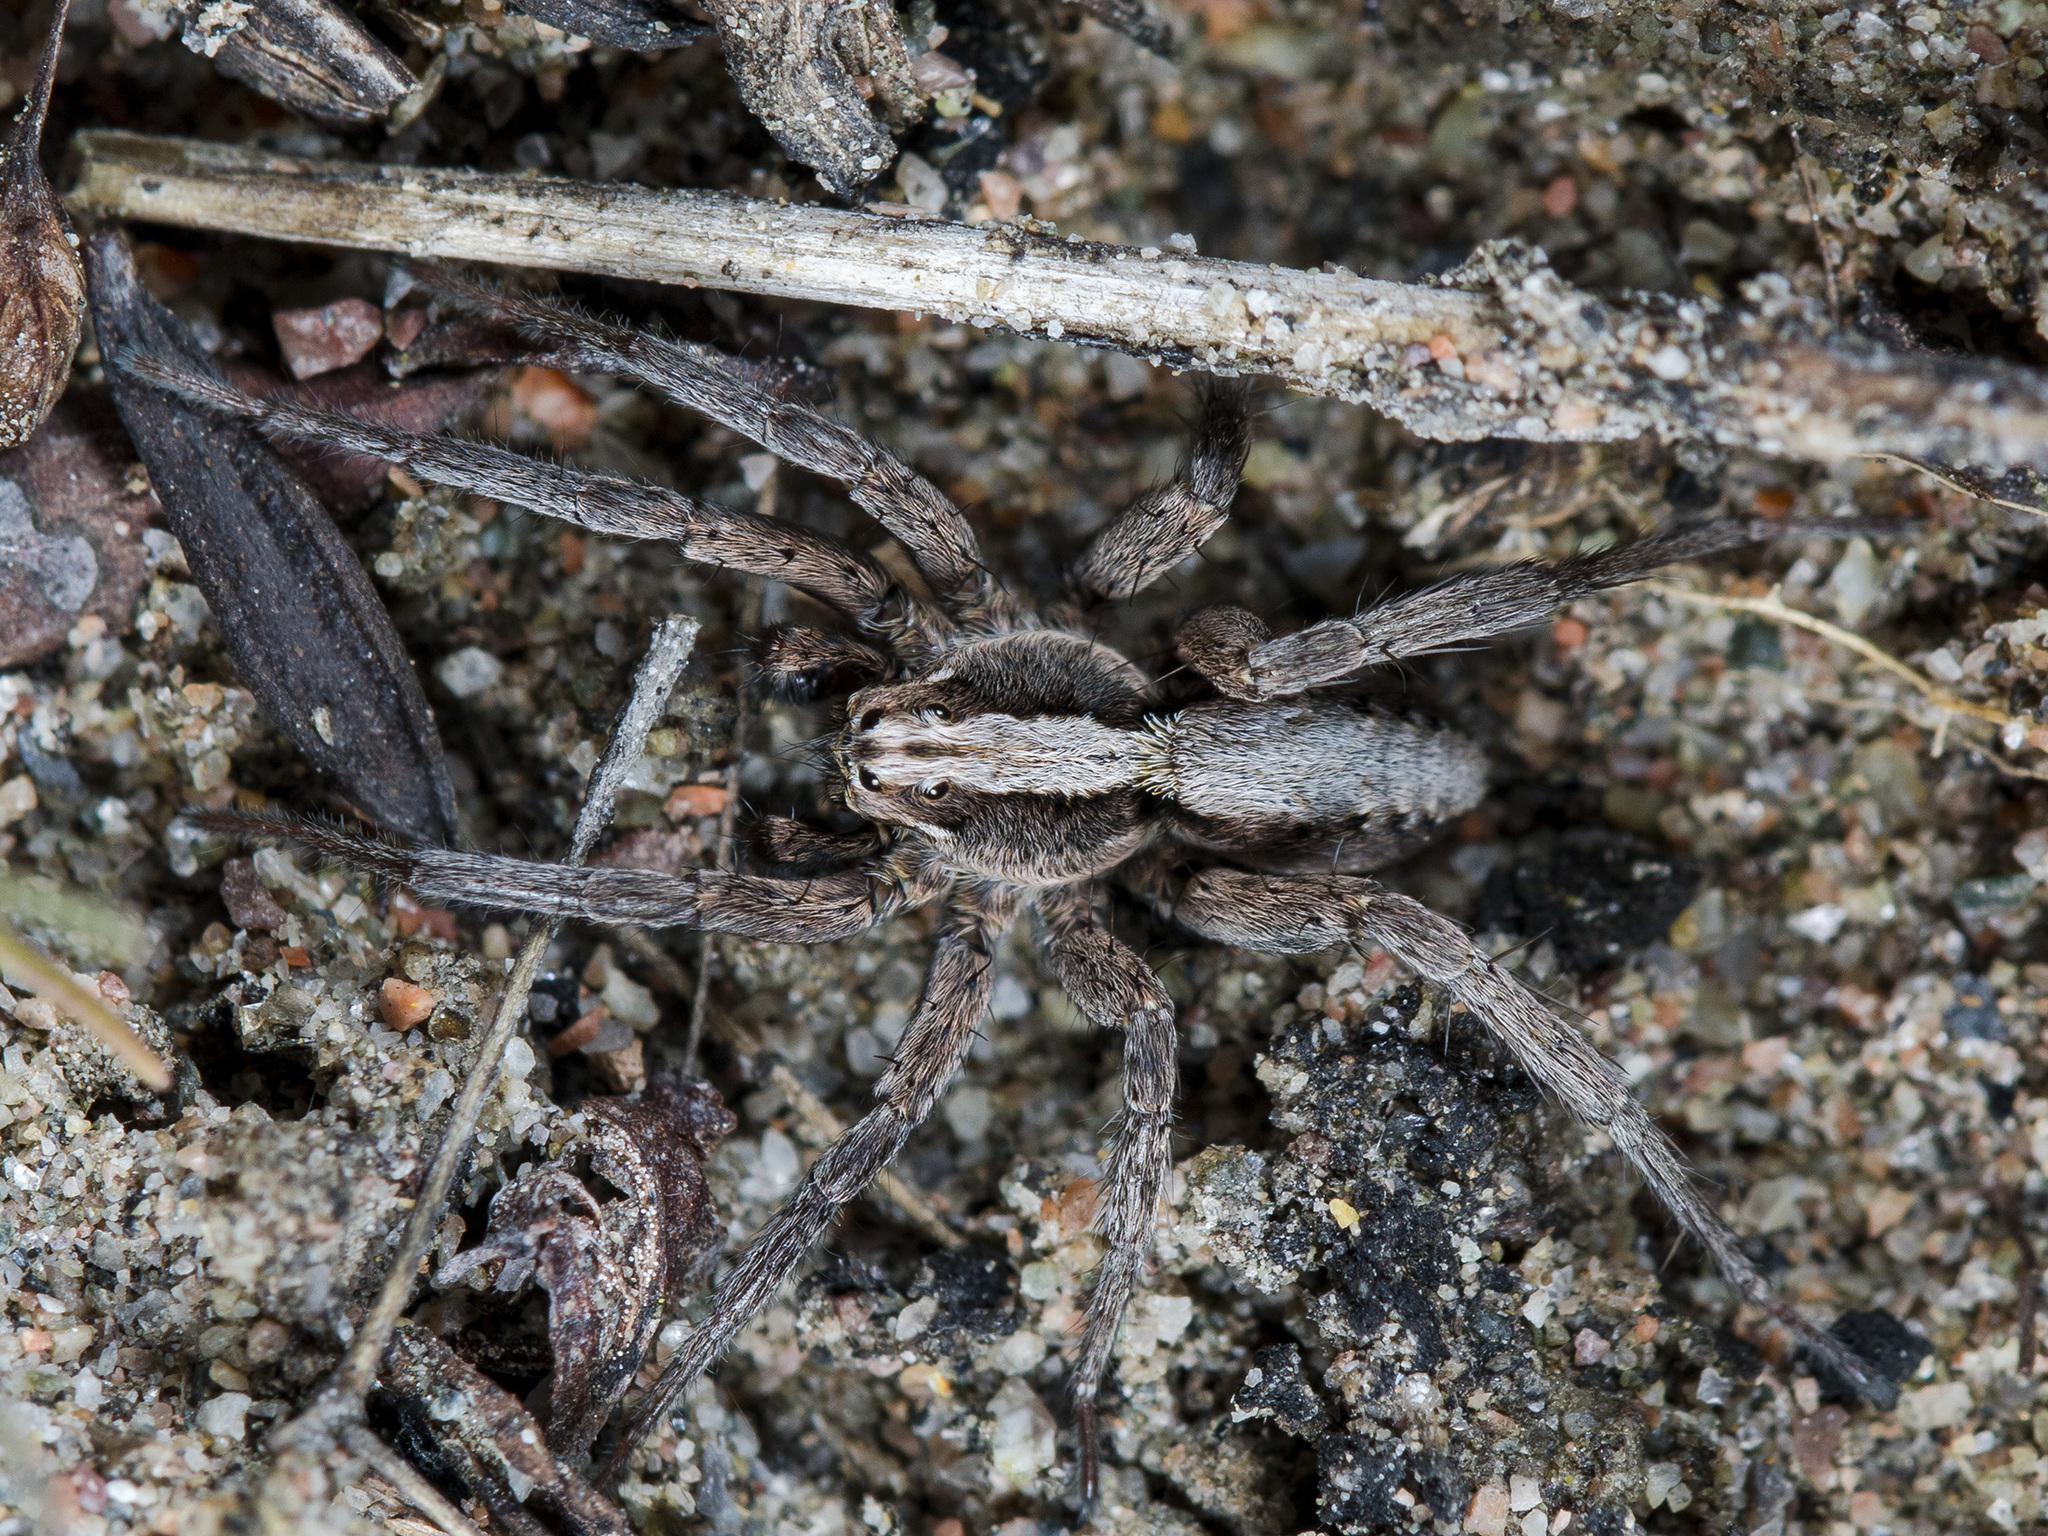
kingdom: Animalia
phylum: Arthropoda
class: Arachnida
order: Araneae
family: Lycosidae
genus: Alopecosa
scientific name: Alopecosa cursor
